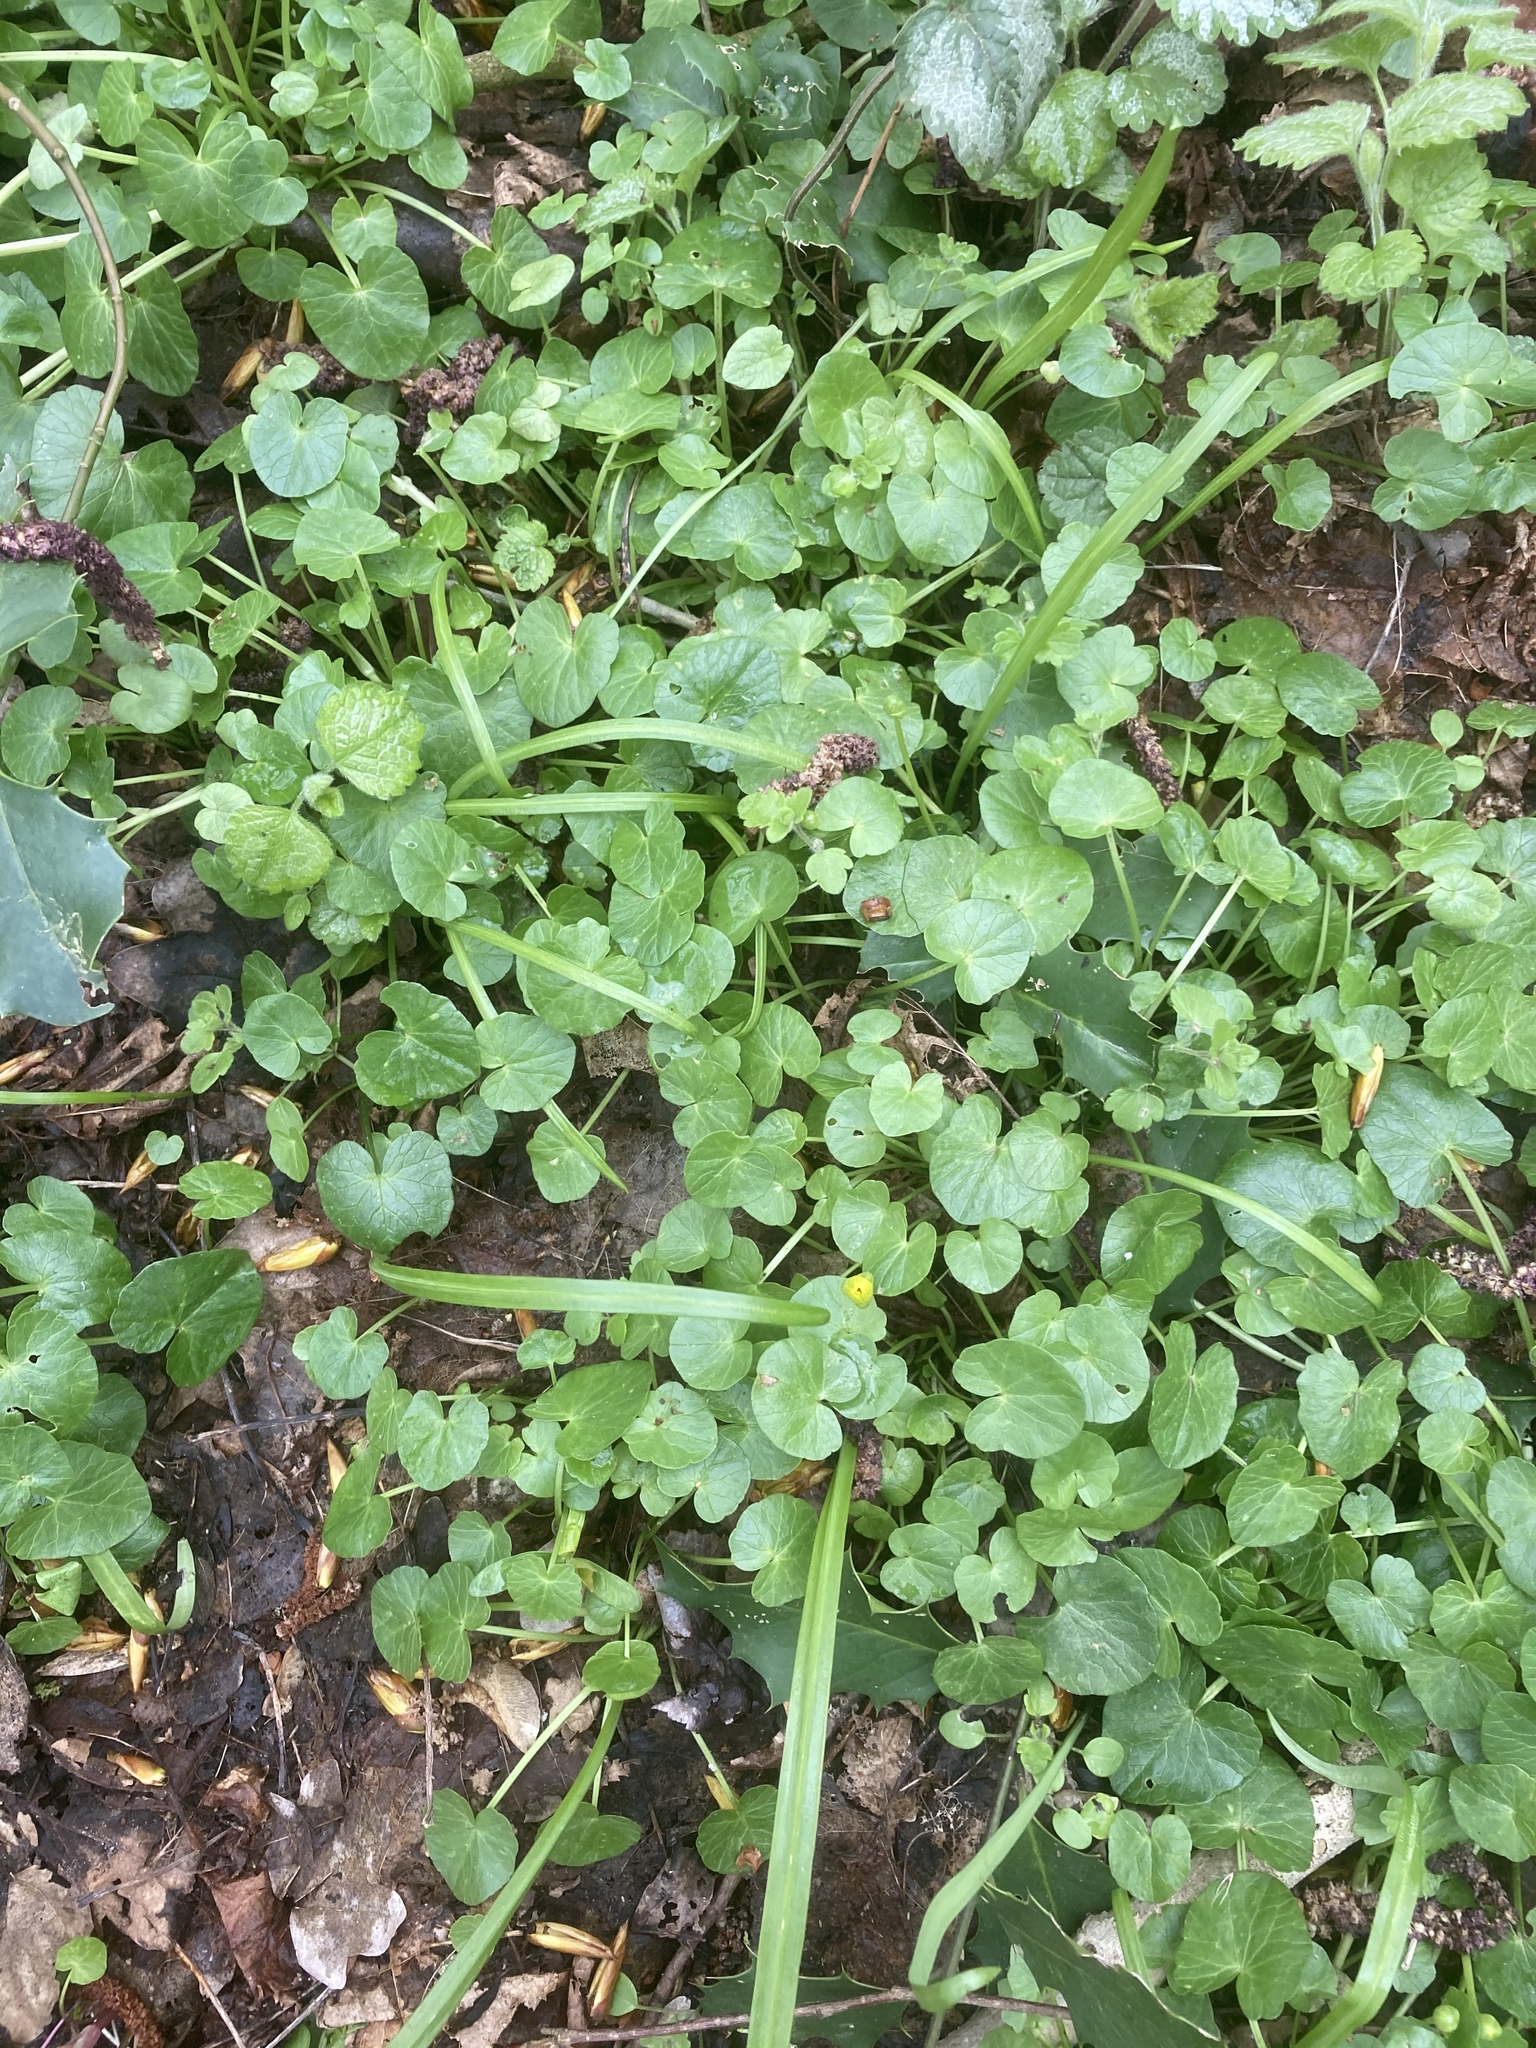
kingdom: Plantae
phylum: Tracheophyta
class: Magnoliopsida
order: Ranunculales
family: Ranunculaceae
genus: Ficaria
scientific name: Ficaria verna
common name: Lesser celandine
